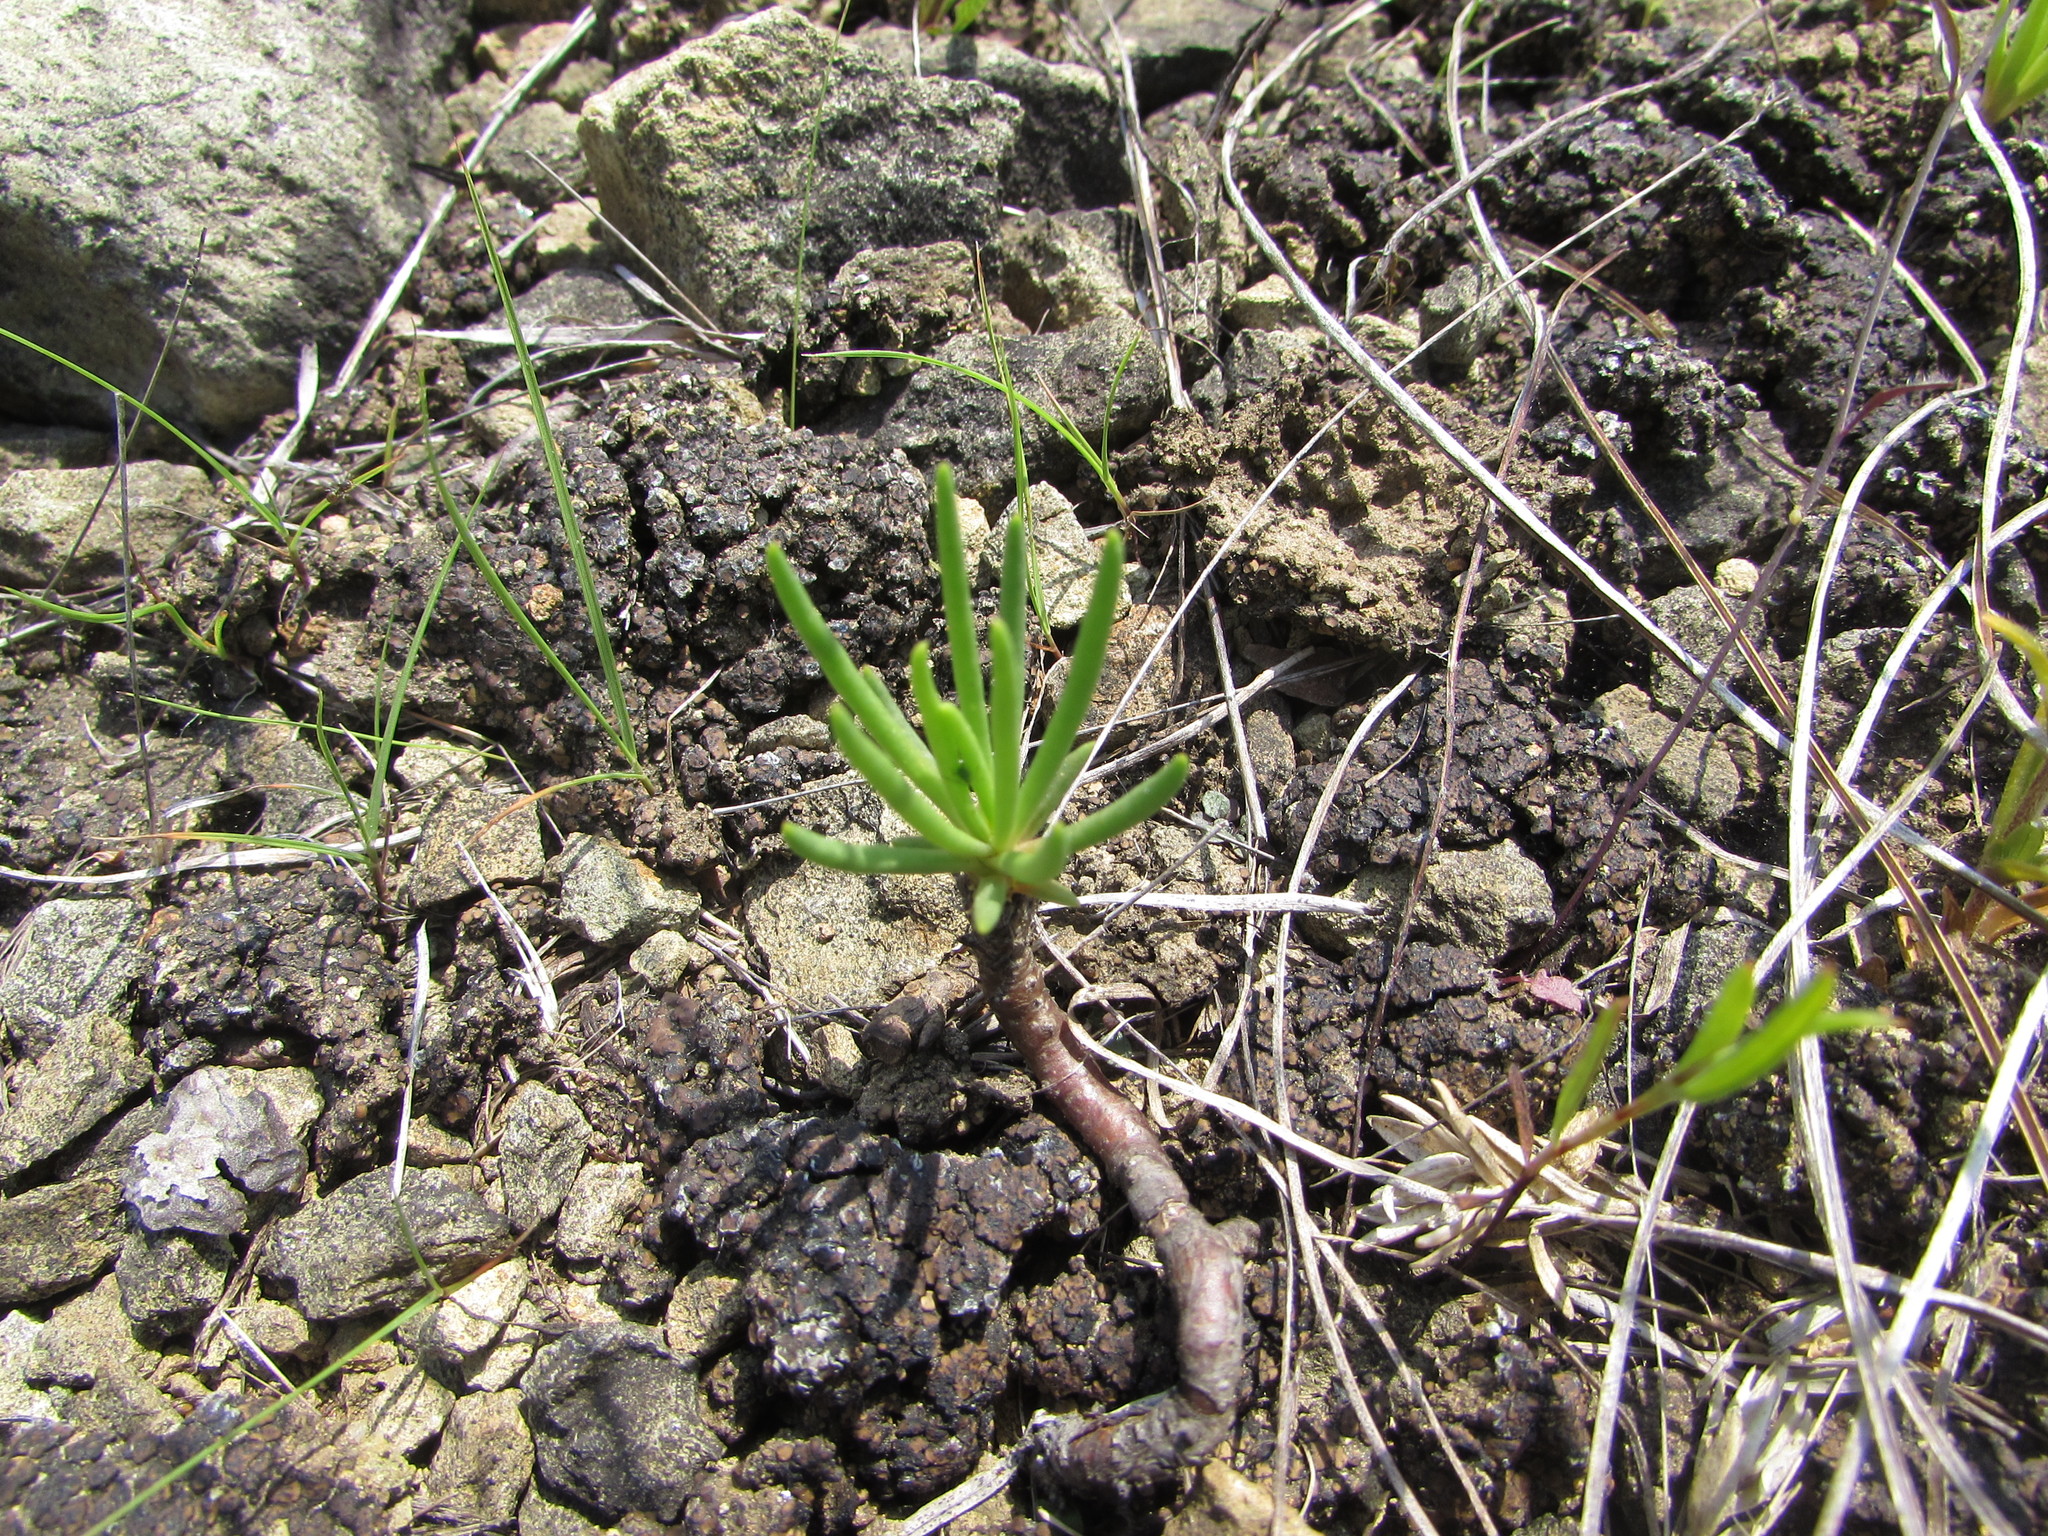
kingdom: Plantae
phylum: Tracheophyta
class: Magnoliopsida
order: Caryophyllales
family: Montiaceae
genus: Phemeranthus
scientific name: Phemeranthus teretifolius
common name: Quill fameflower
